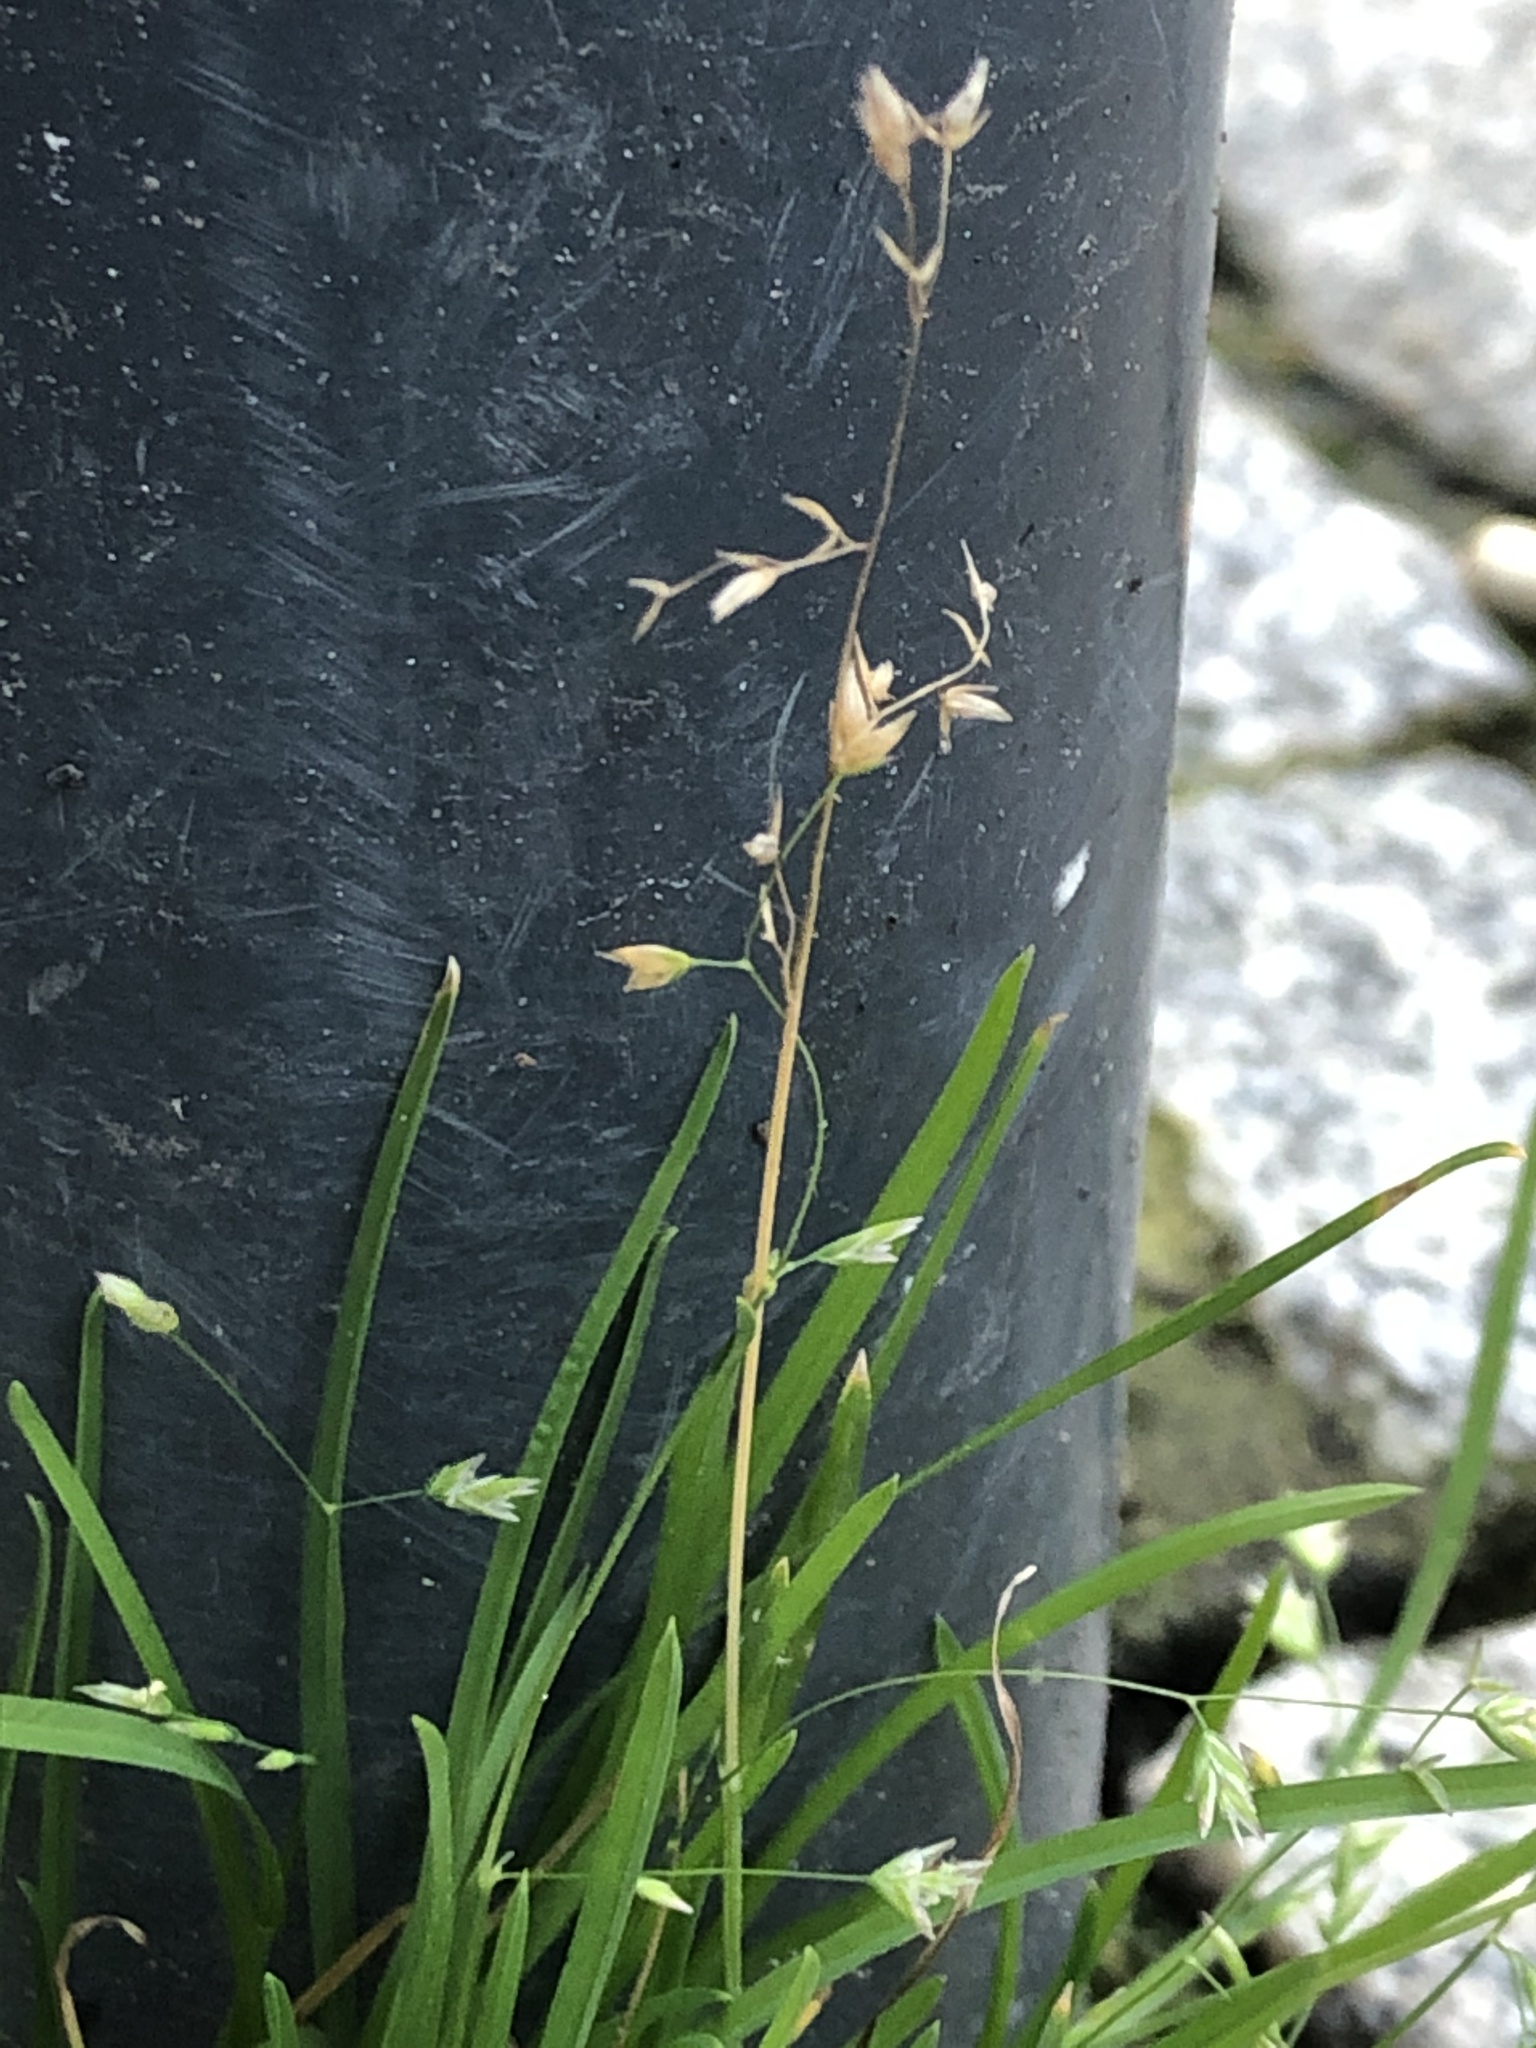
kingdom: Plantae
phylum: Tracheophyta
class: Liliopsida
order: Poales
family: Poaceae
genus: Poa
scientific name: Poa annua
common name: Annual bluegrass
